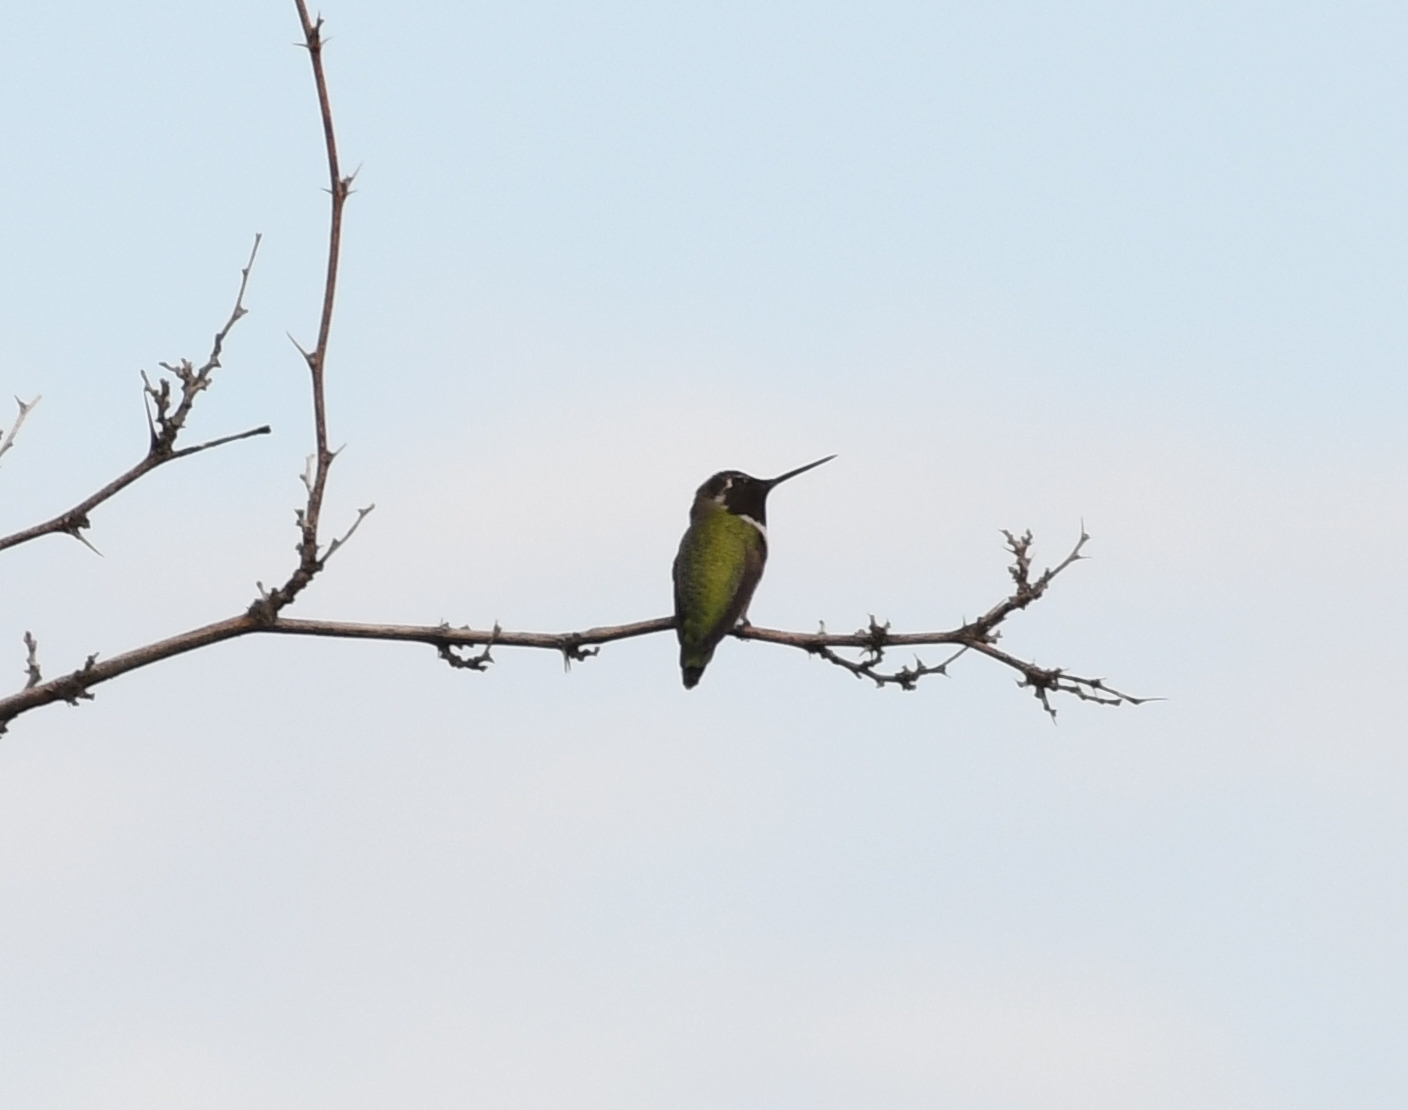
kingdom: Animalia
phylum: Chordata
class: Aves
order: Apodiformes
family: Trochilidae
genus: Calypte
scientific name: Calypte anna
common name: Anna's hummingbird
